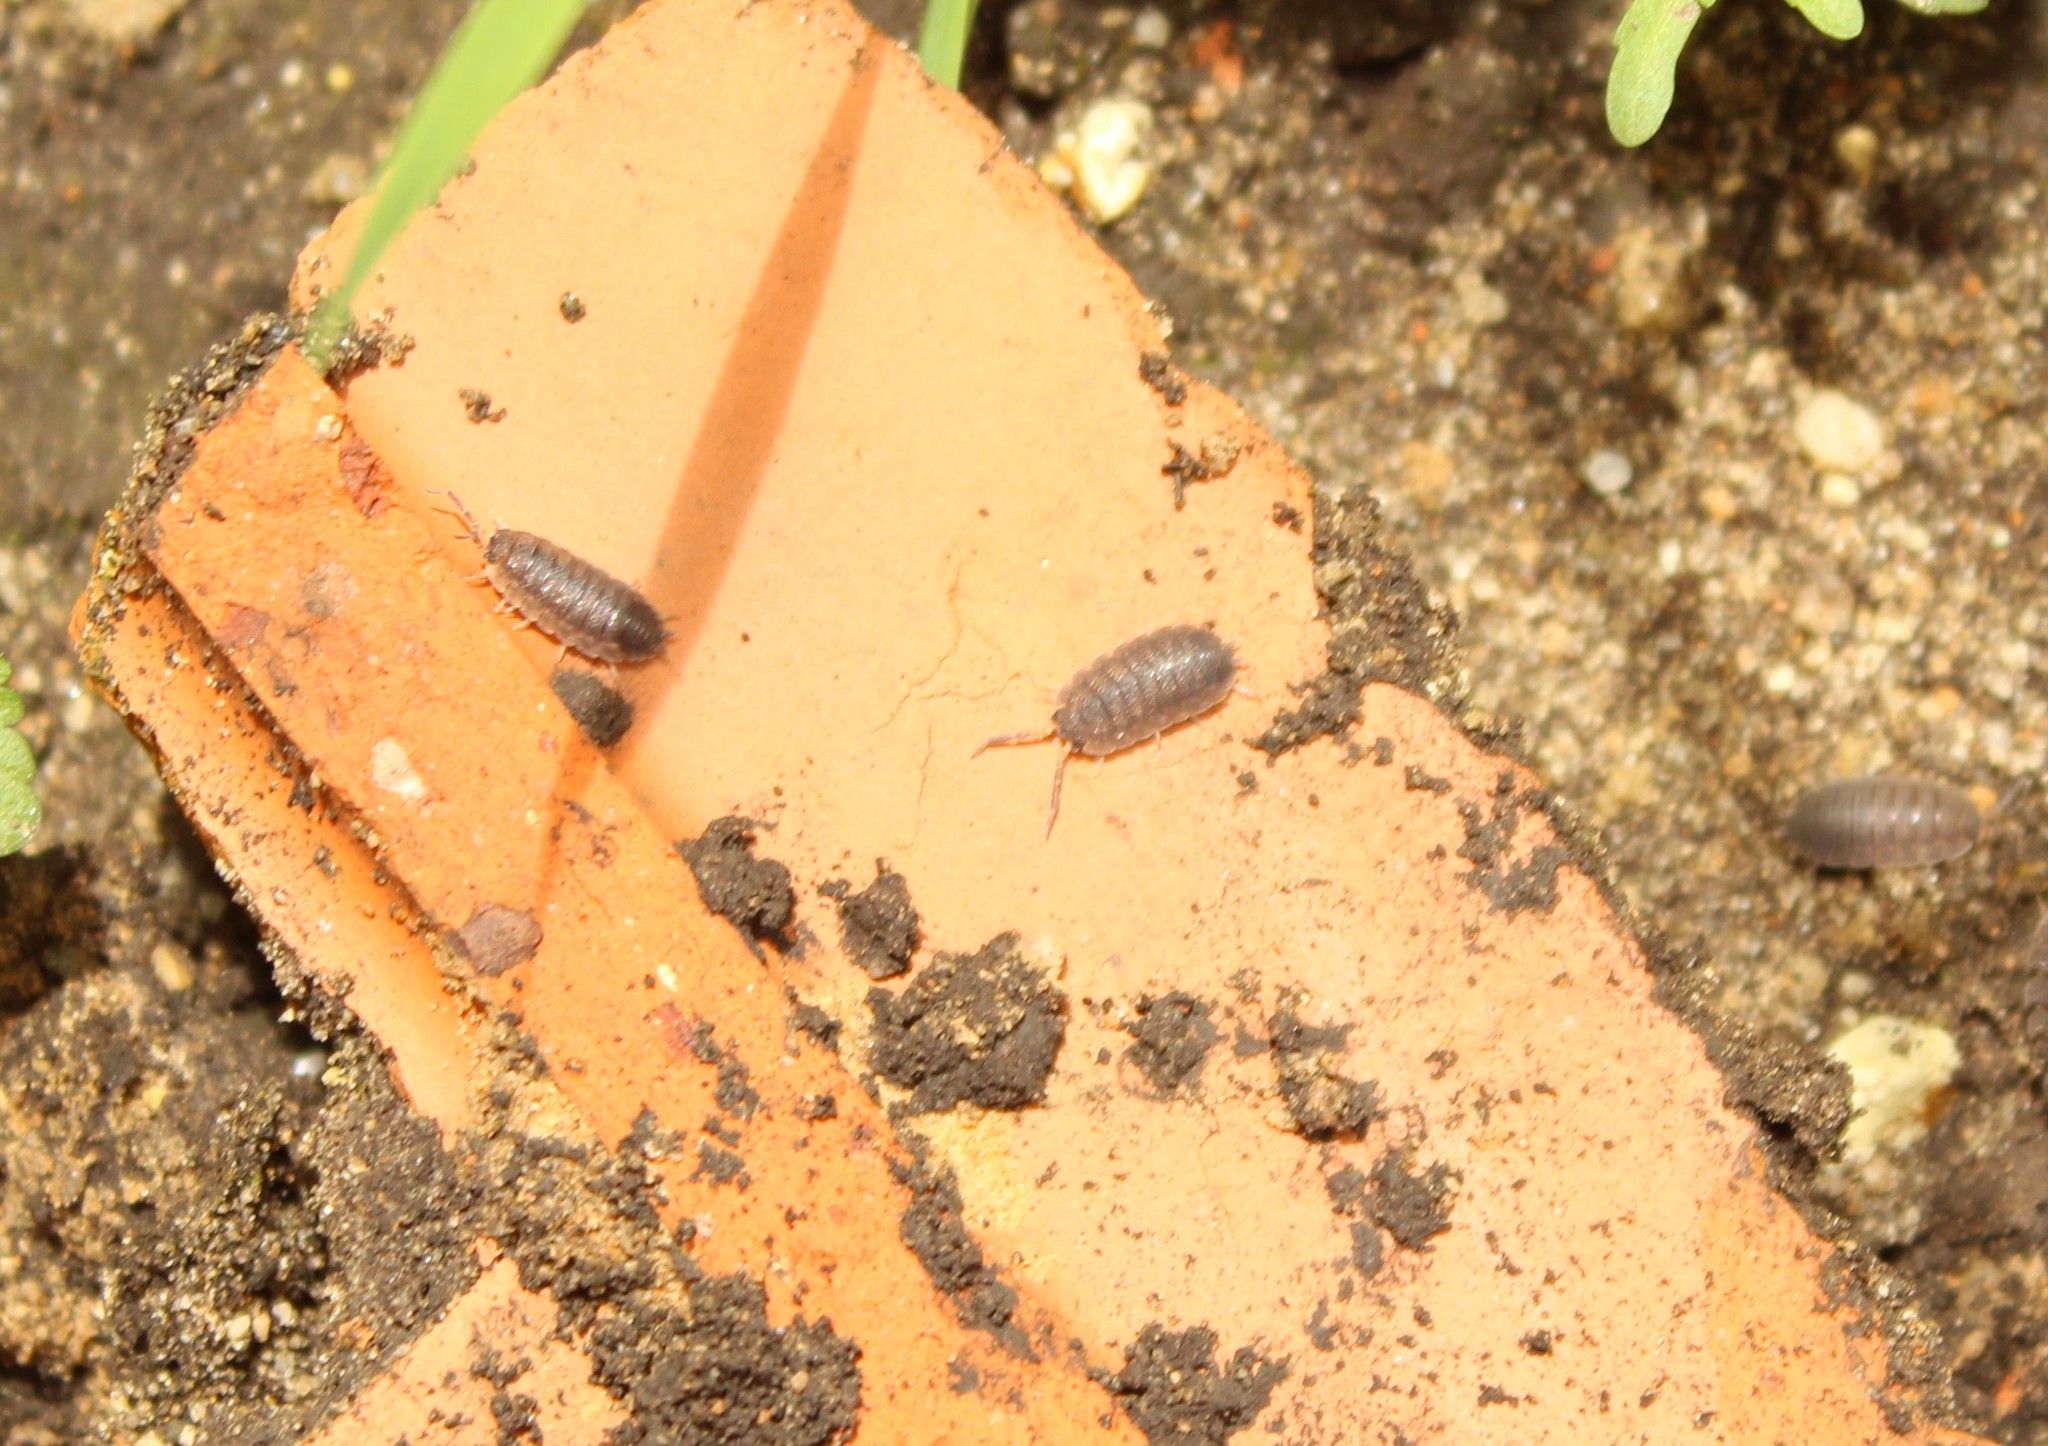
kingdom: Animalia
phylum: Arthropoda
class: Malacostraca
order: Isopoda
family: Porcellionidae
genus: Porcellio
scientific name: Porcellio scaber
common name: Common rough woodlouse
